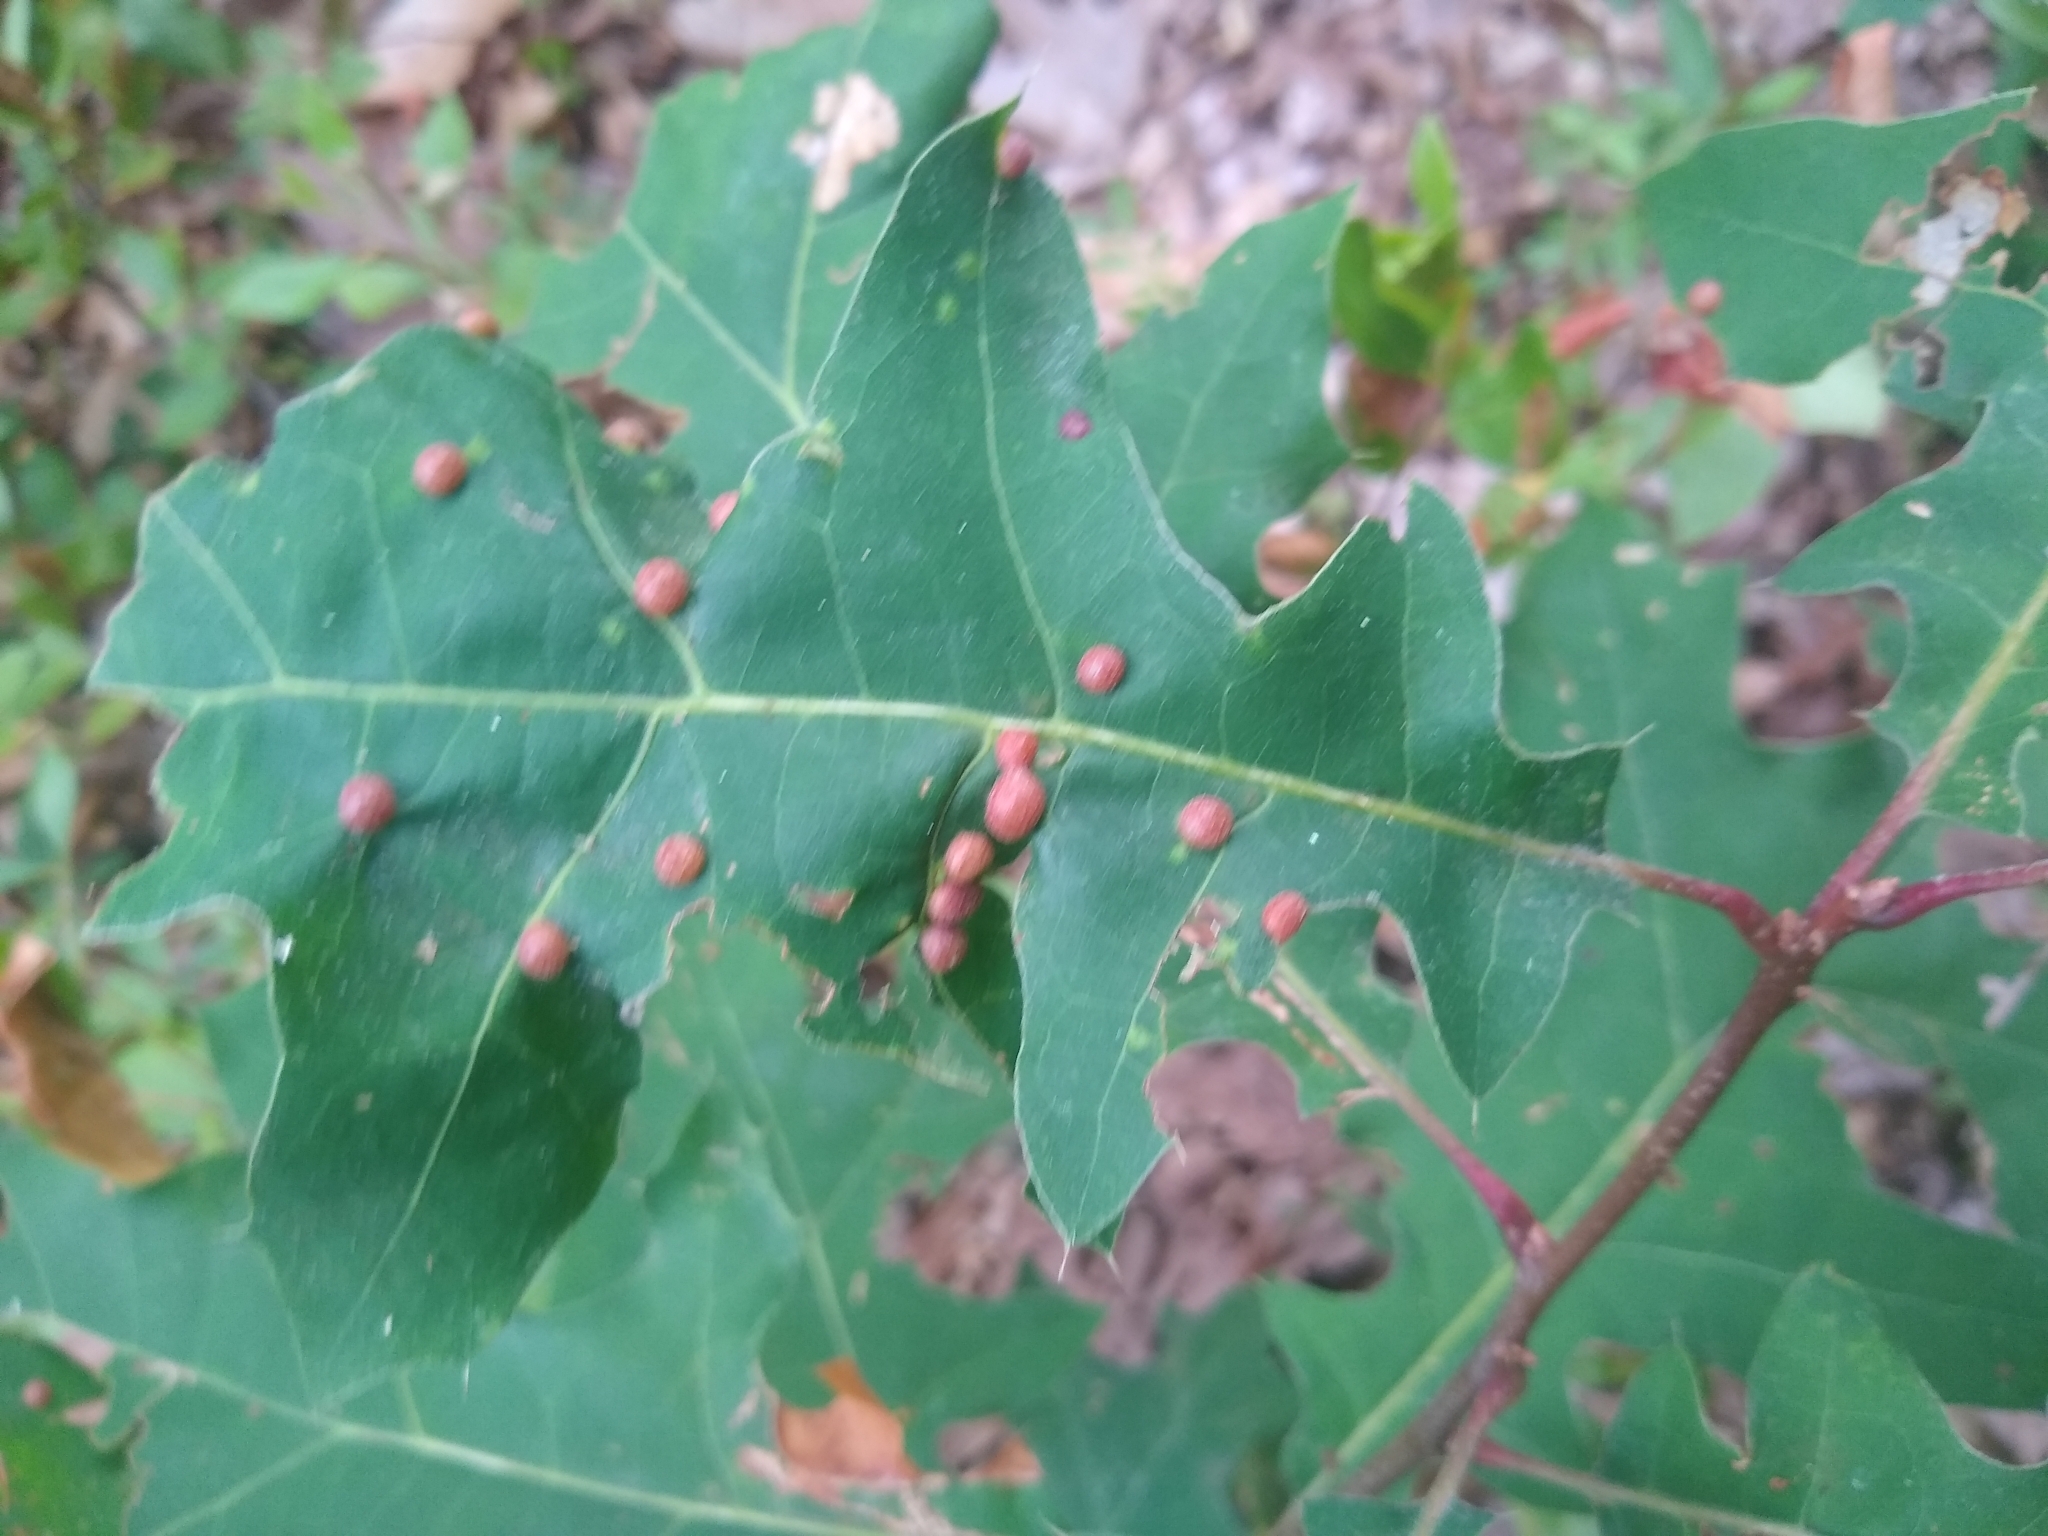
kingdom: Animalia
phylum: Arthropoda
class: Insecta
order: Diptera
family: Cecidomyiidae
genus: Polystepha
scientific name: Polystepha pilulae
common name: Oak leaf gall midge
